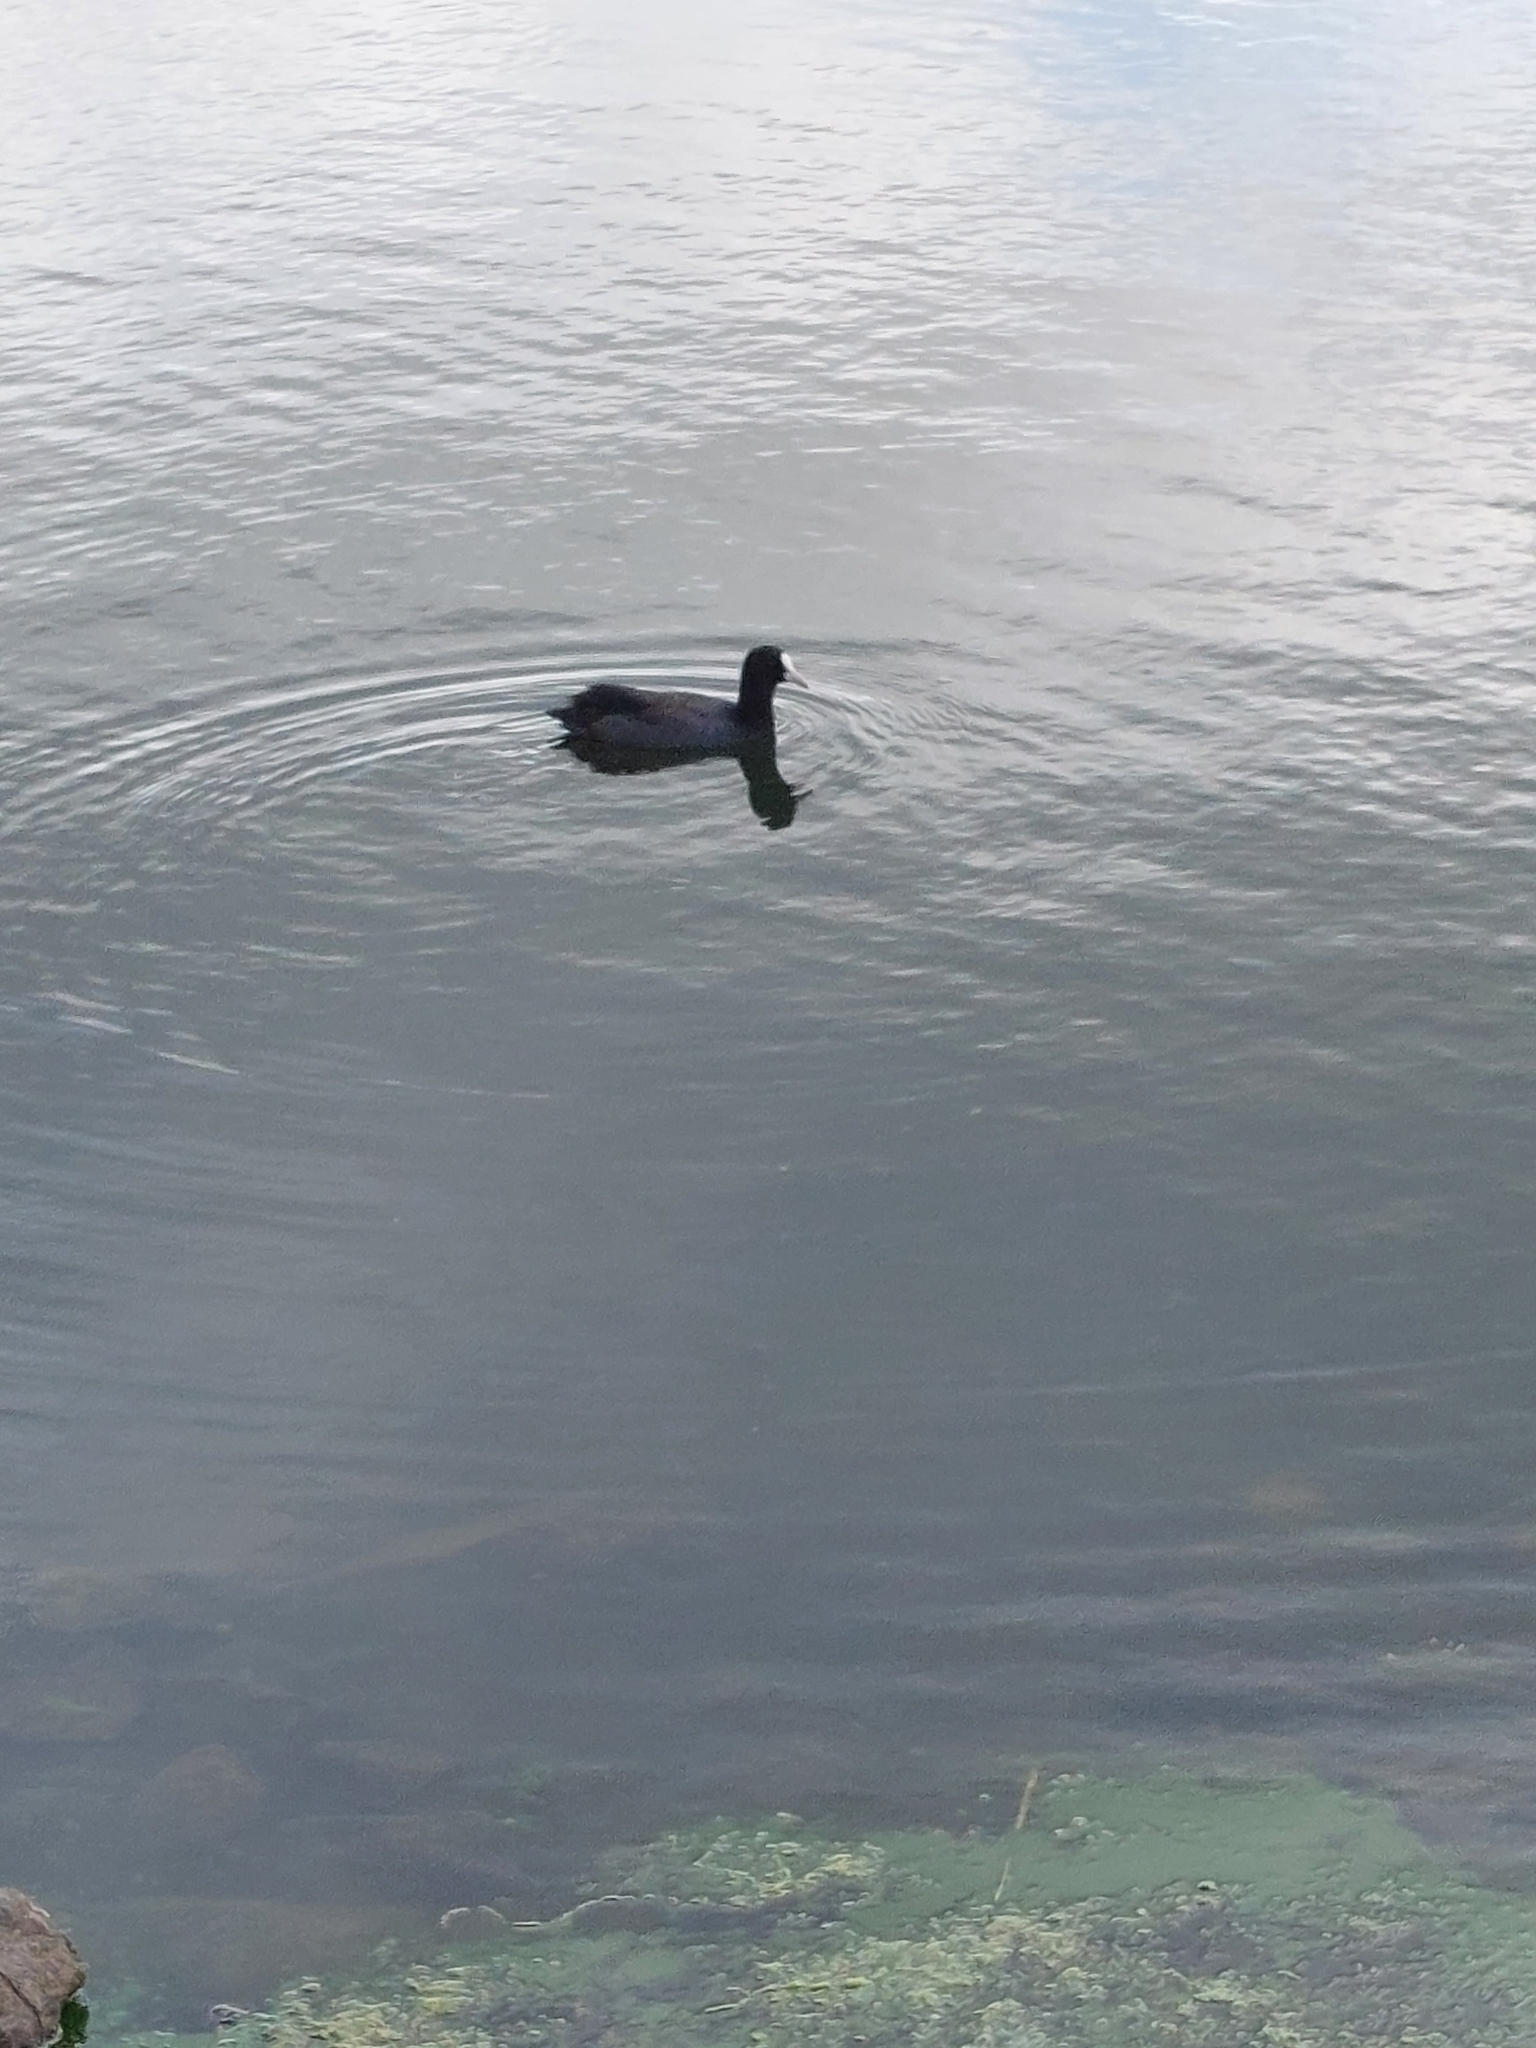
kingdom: Animalia
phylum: Chordata
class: Aves
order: Gruiformes
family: Rallidae
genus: Fulica
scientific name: Fulica atra
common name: Eurasian coot
